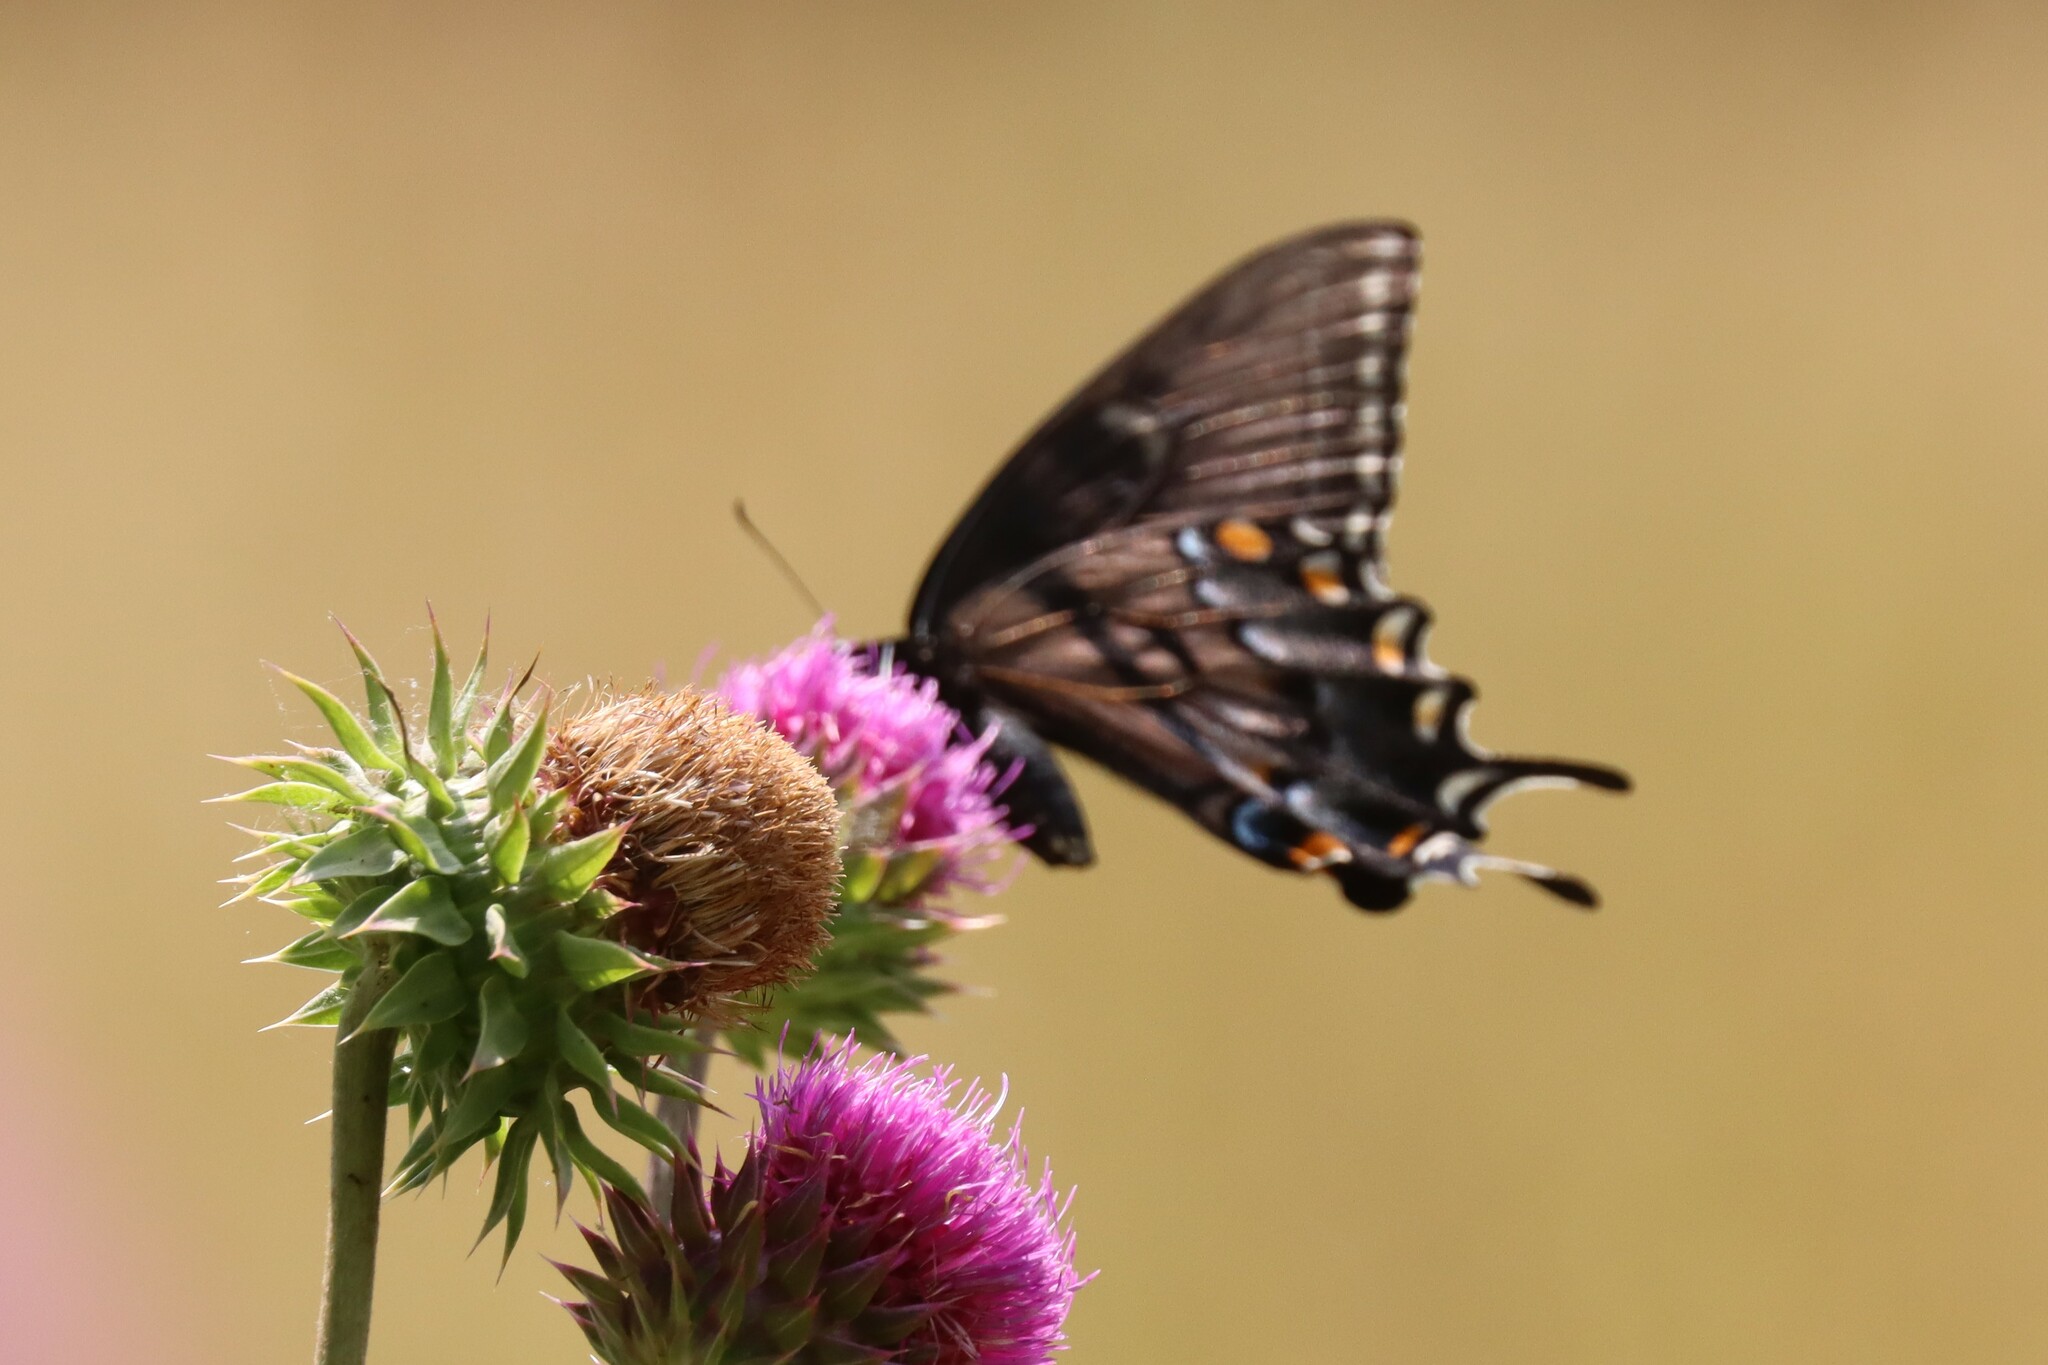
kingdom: Animalia
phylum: Arthropoda
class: Insecta
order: Lepidoptera
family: Papilionidae
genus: Papilio
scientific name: Papilio glaucus
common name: Tiger swallowtail
